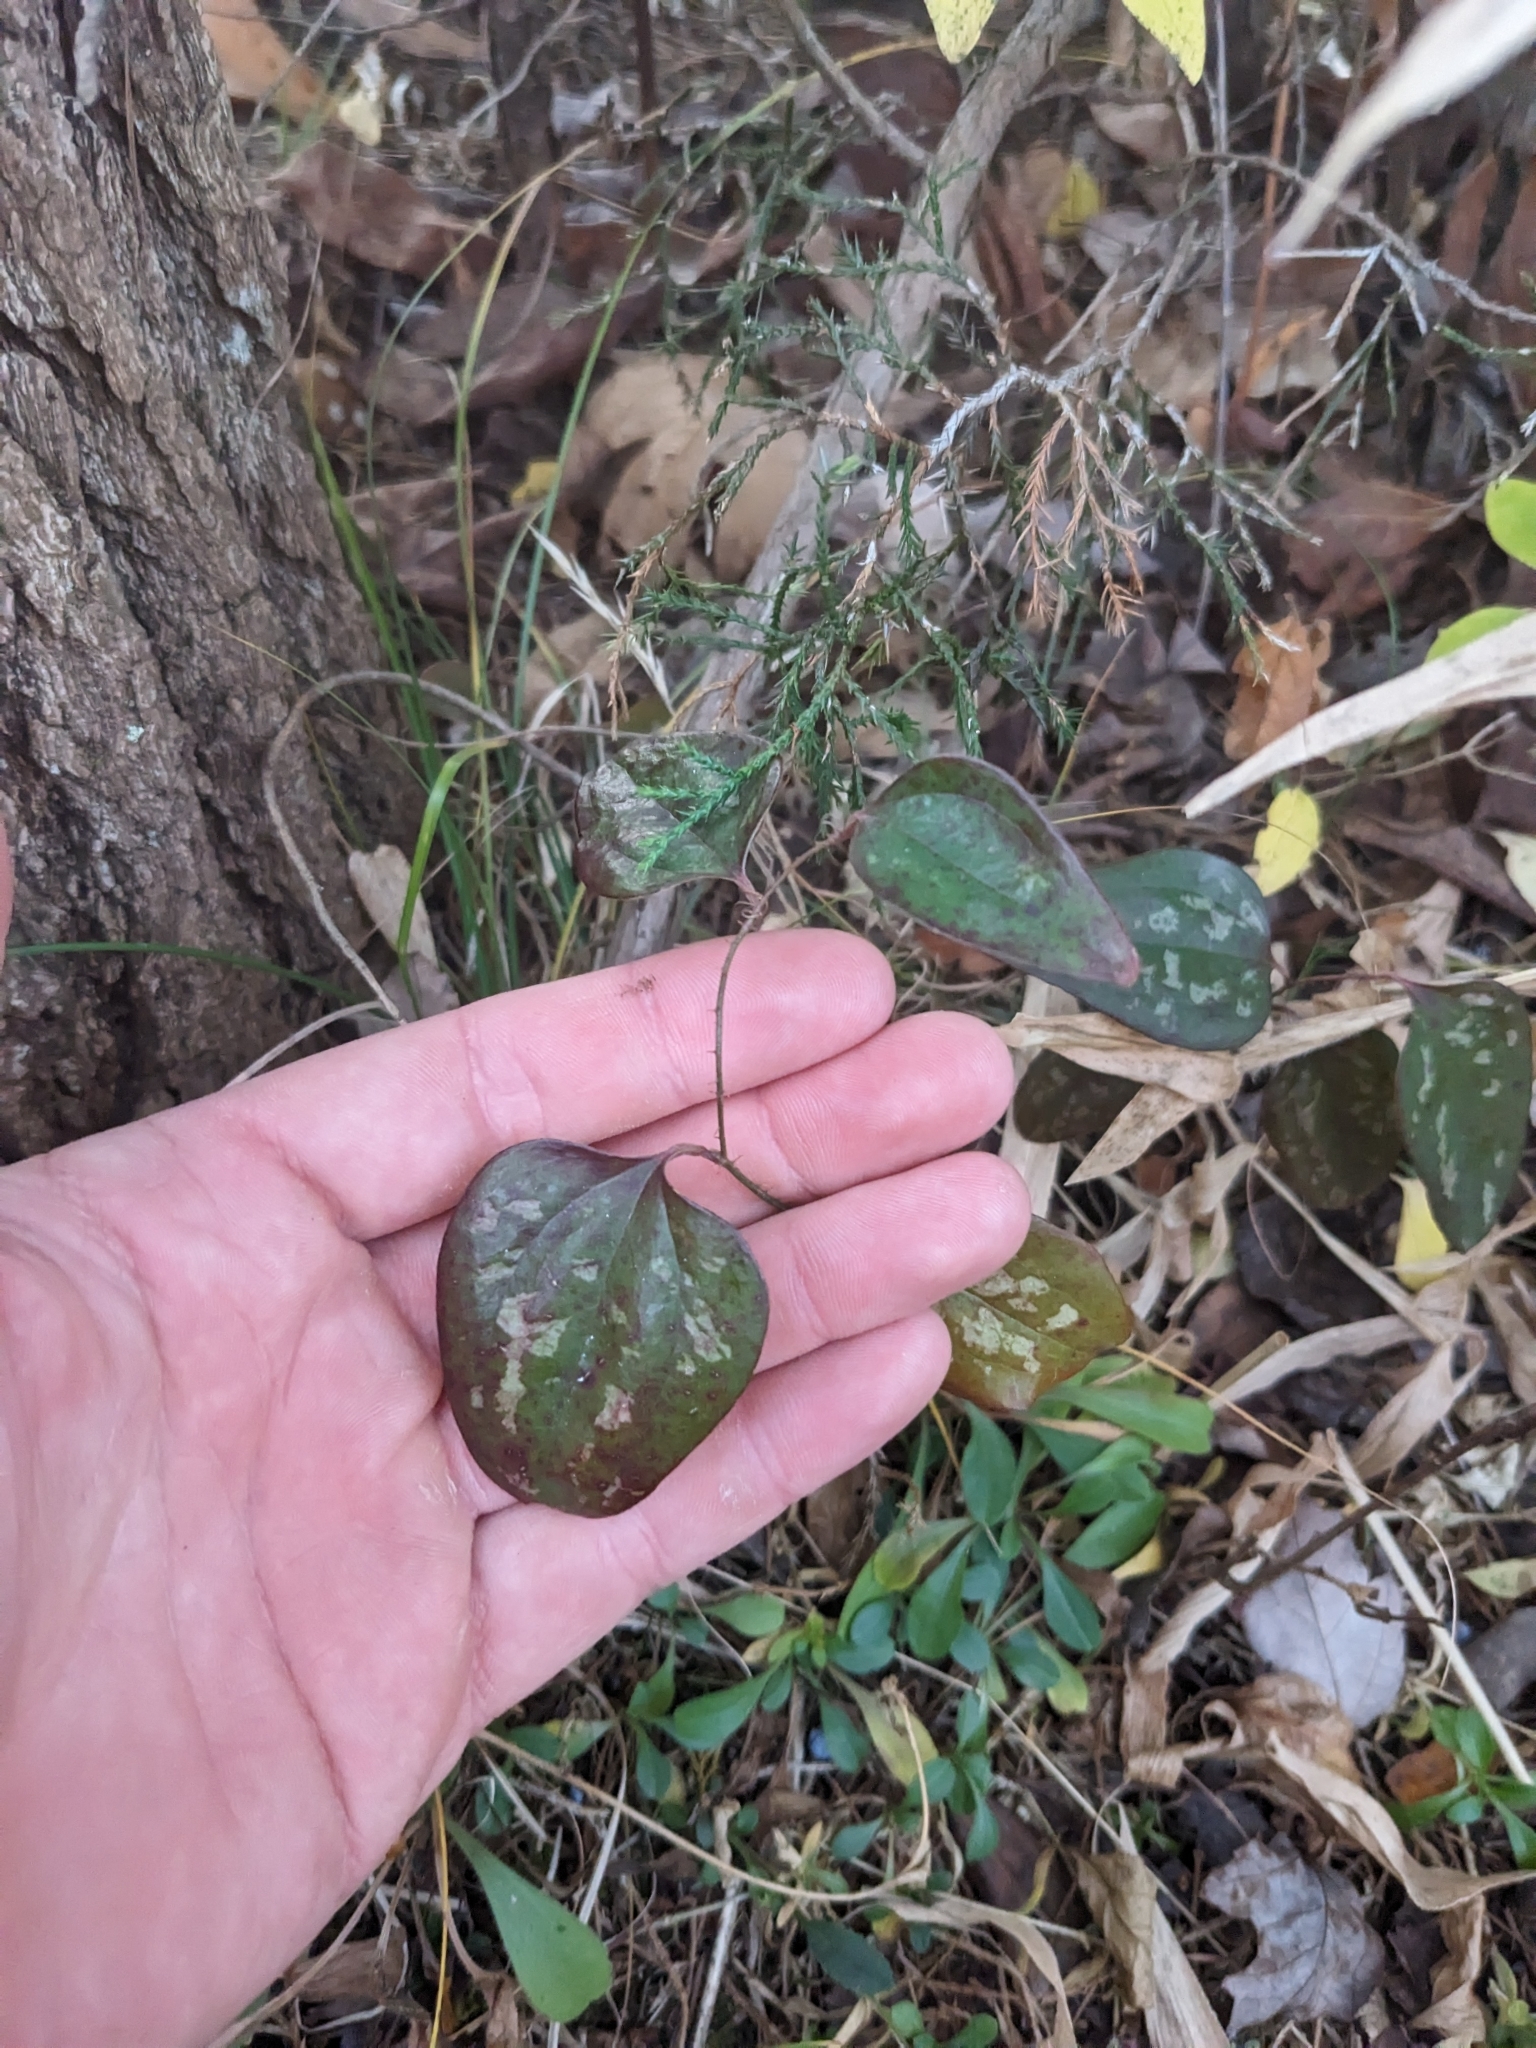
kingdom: Plantae
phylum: Tracheophyta
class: Liliopsida
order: Liliales
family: Smilacaceae
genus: Smilax
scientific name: Smilax glauca
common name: Cat greenbrier
